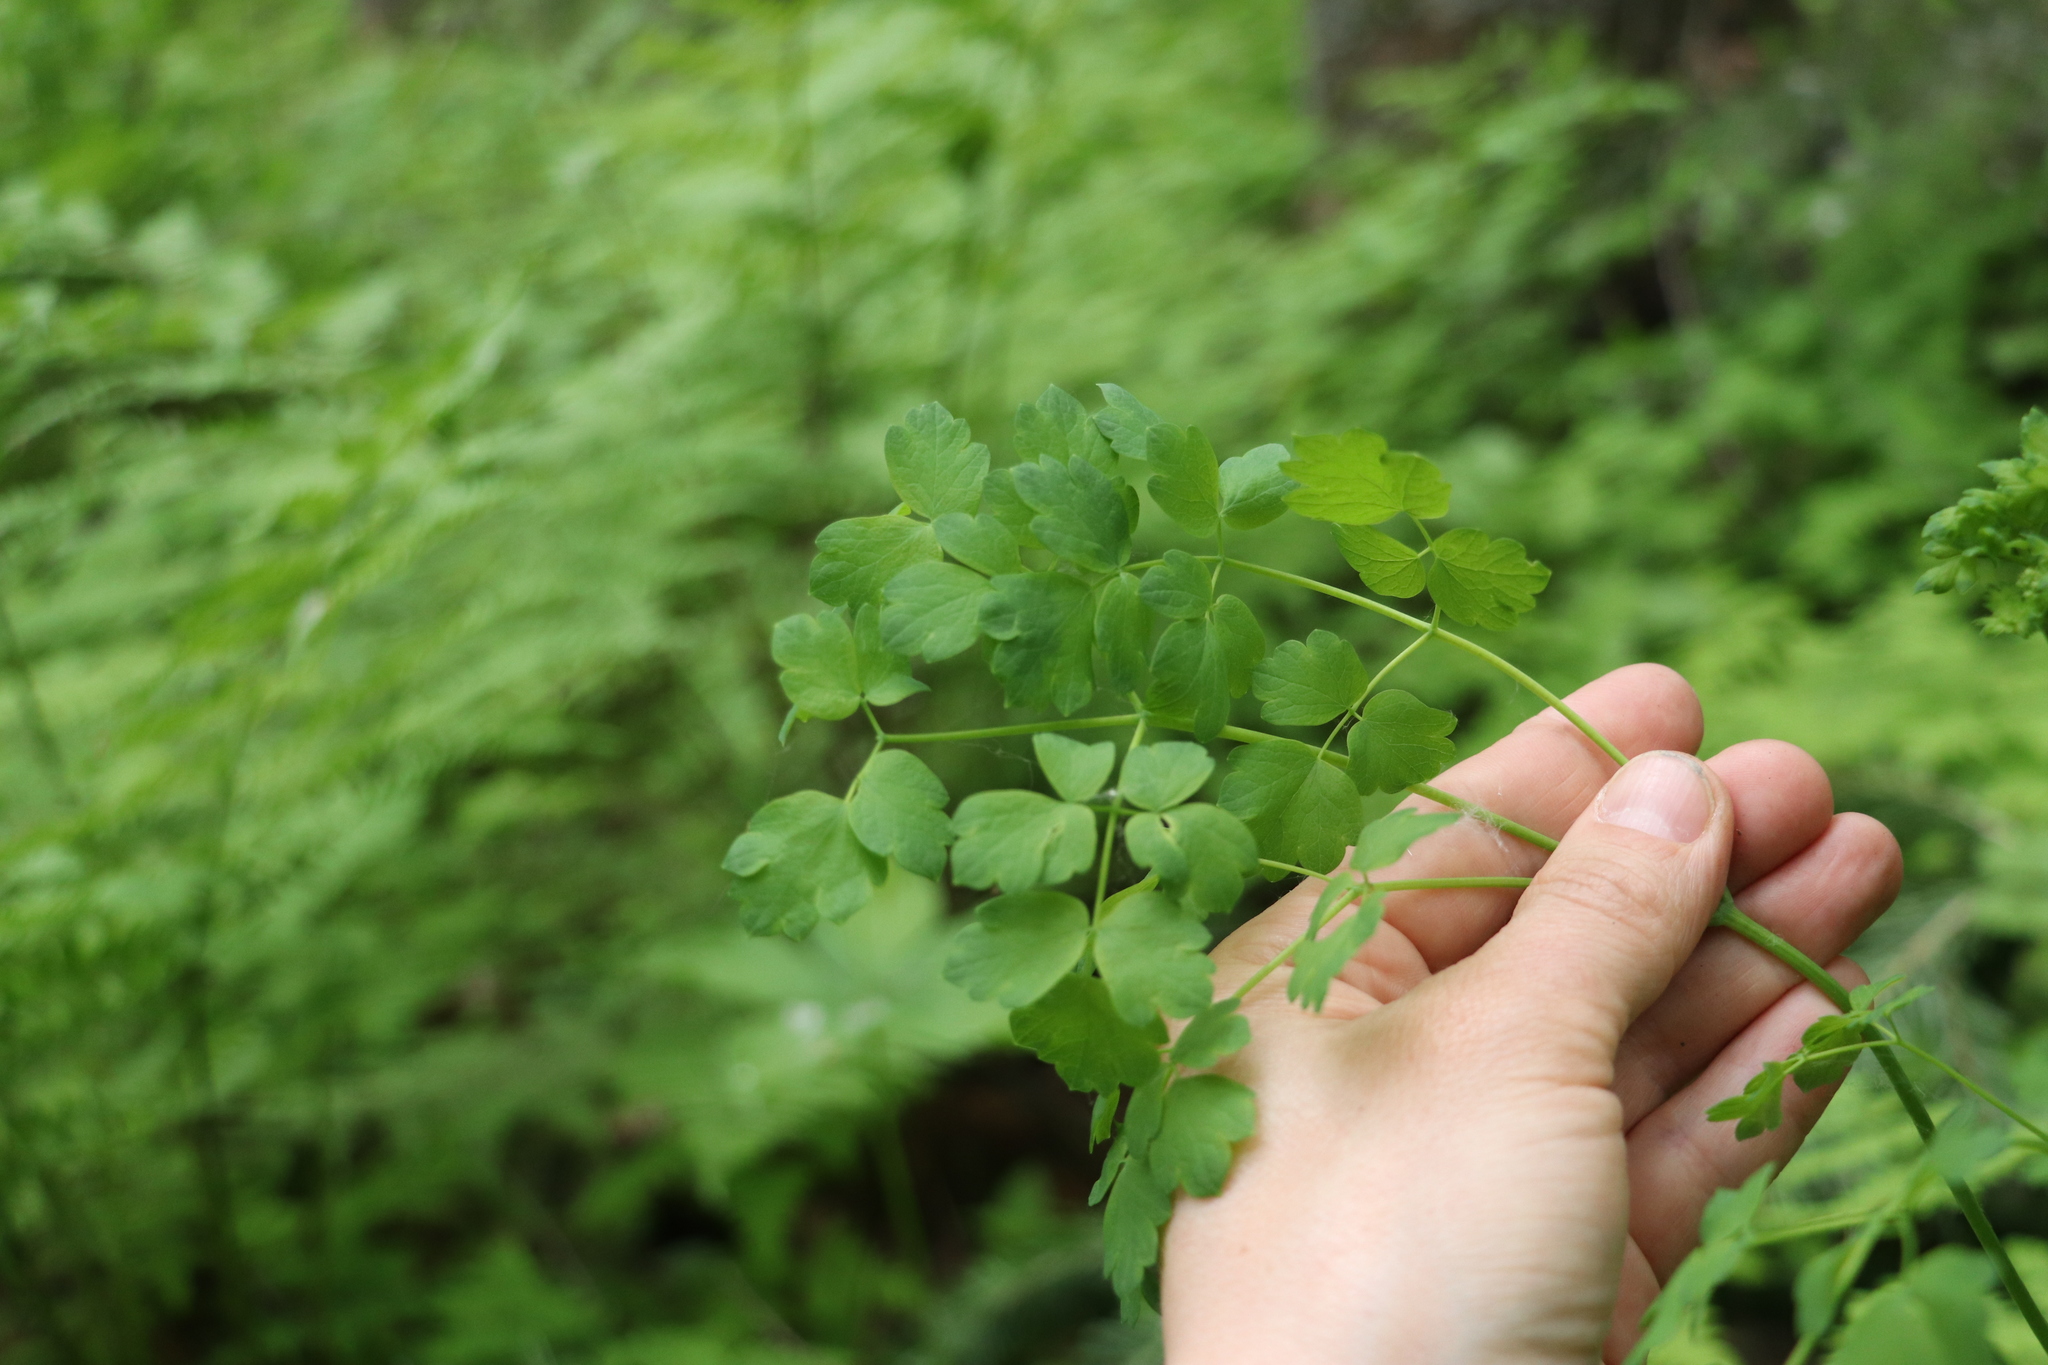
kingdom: Plantae
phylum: Tracheophyta
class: Magnoliopsida
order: Ranunculales
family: Ranunculaceae
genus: Thalictrum
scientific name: Thalictrum minus
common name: Lesser meadow-rue
